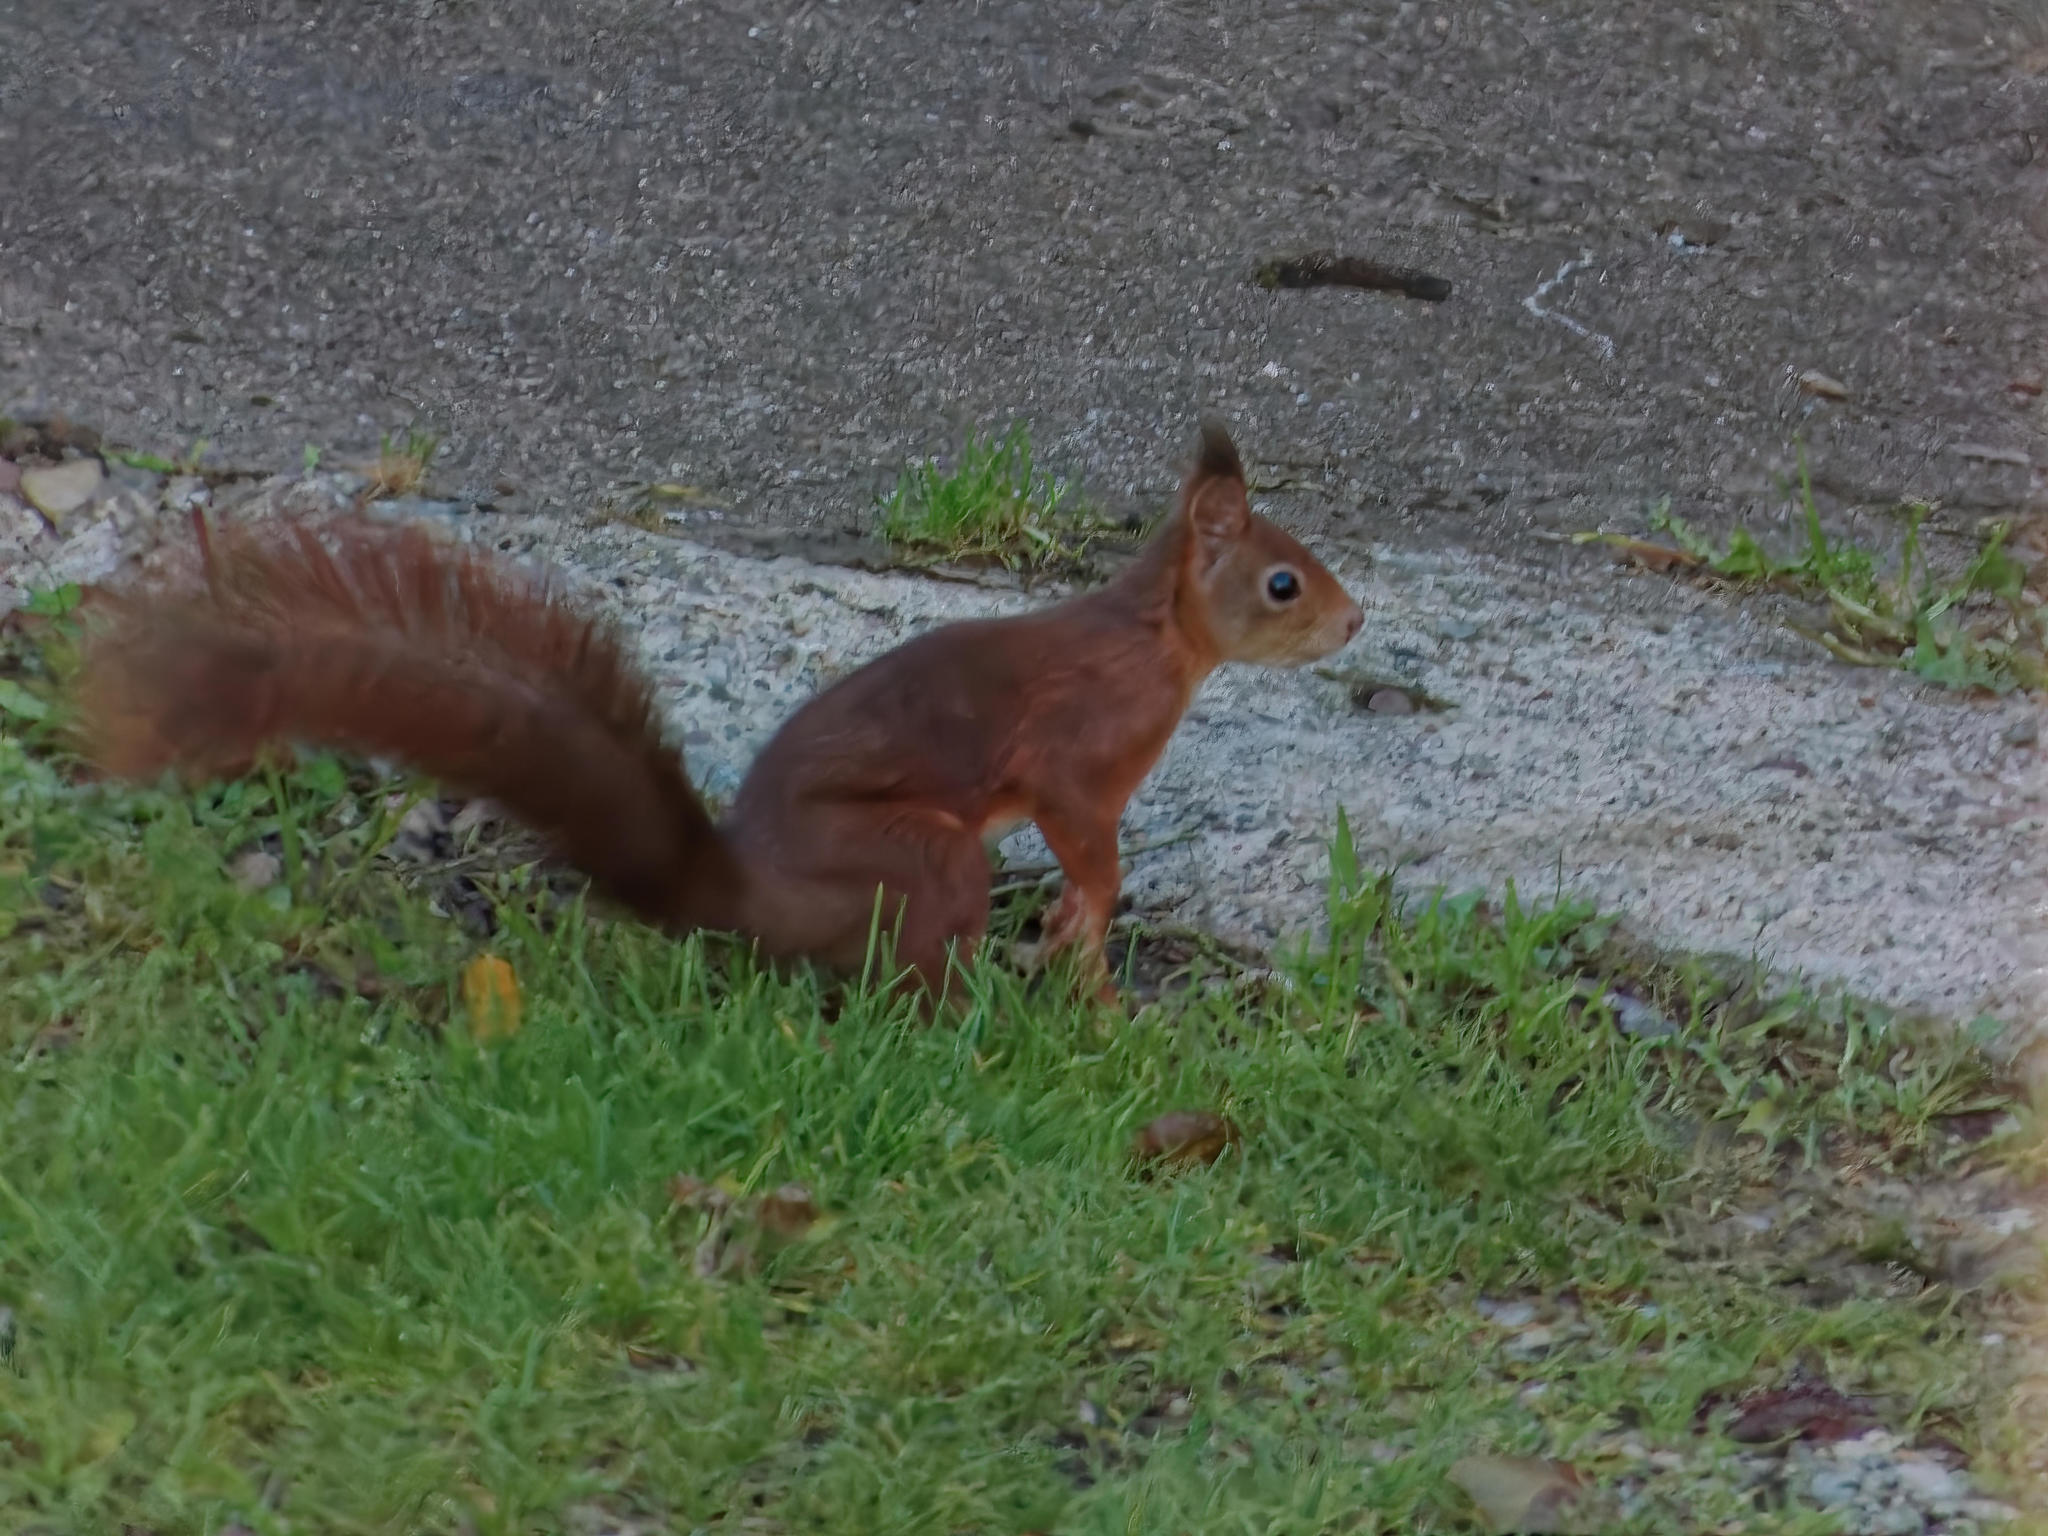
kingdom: Animalia
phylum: Chordata
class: Mammalia
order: Rodentia
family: Sciuridae
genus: Sciurus
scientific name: Sciurus vulgaris
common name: Eurasian red squirrel
